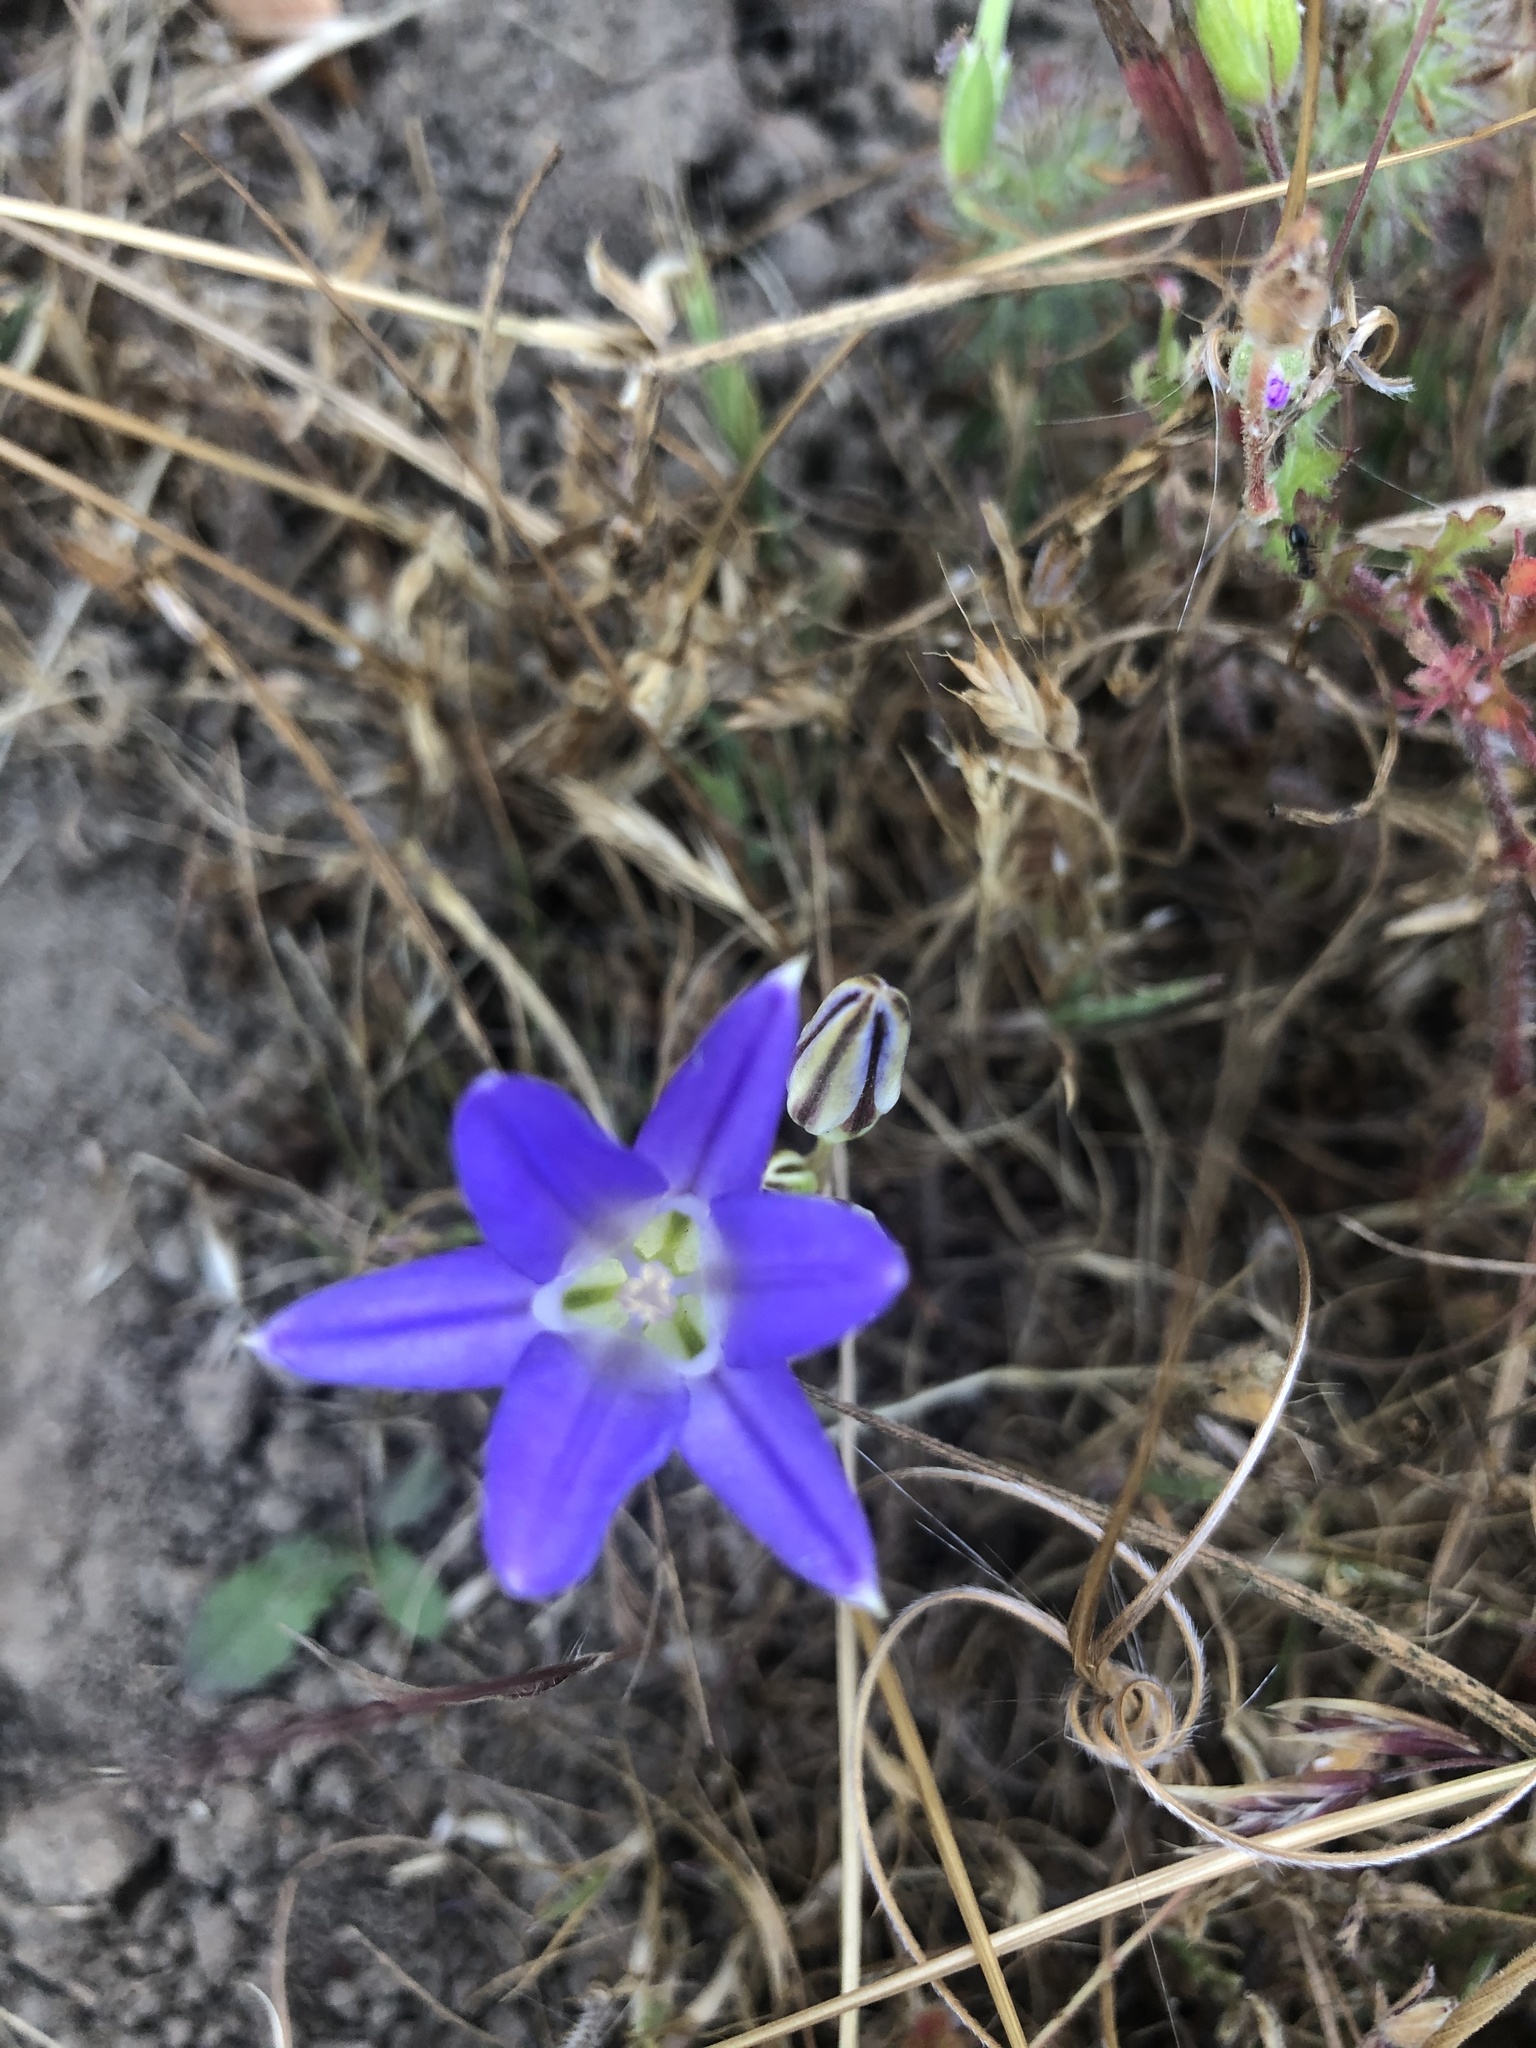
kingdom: Plantae
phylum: Tracheophyta
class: Liliopsida
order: Asparagales
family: Asparagaceae
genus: Brodiaea
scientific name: Brodiaea elegans
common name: Elegant cluster-lily
